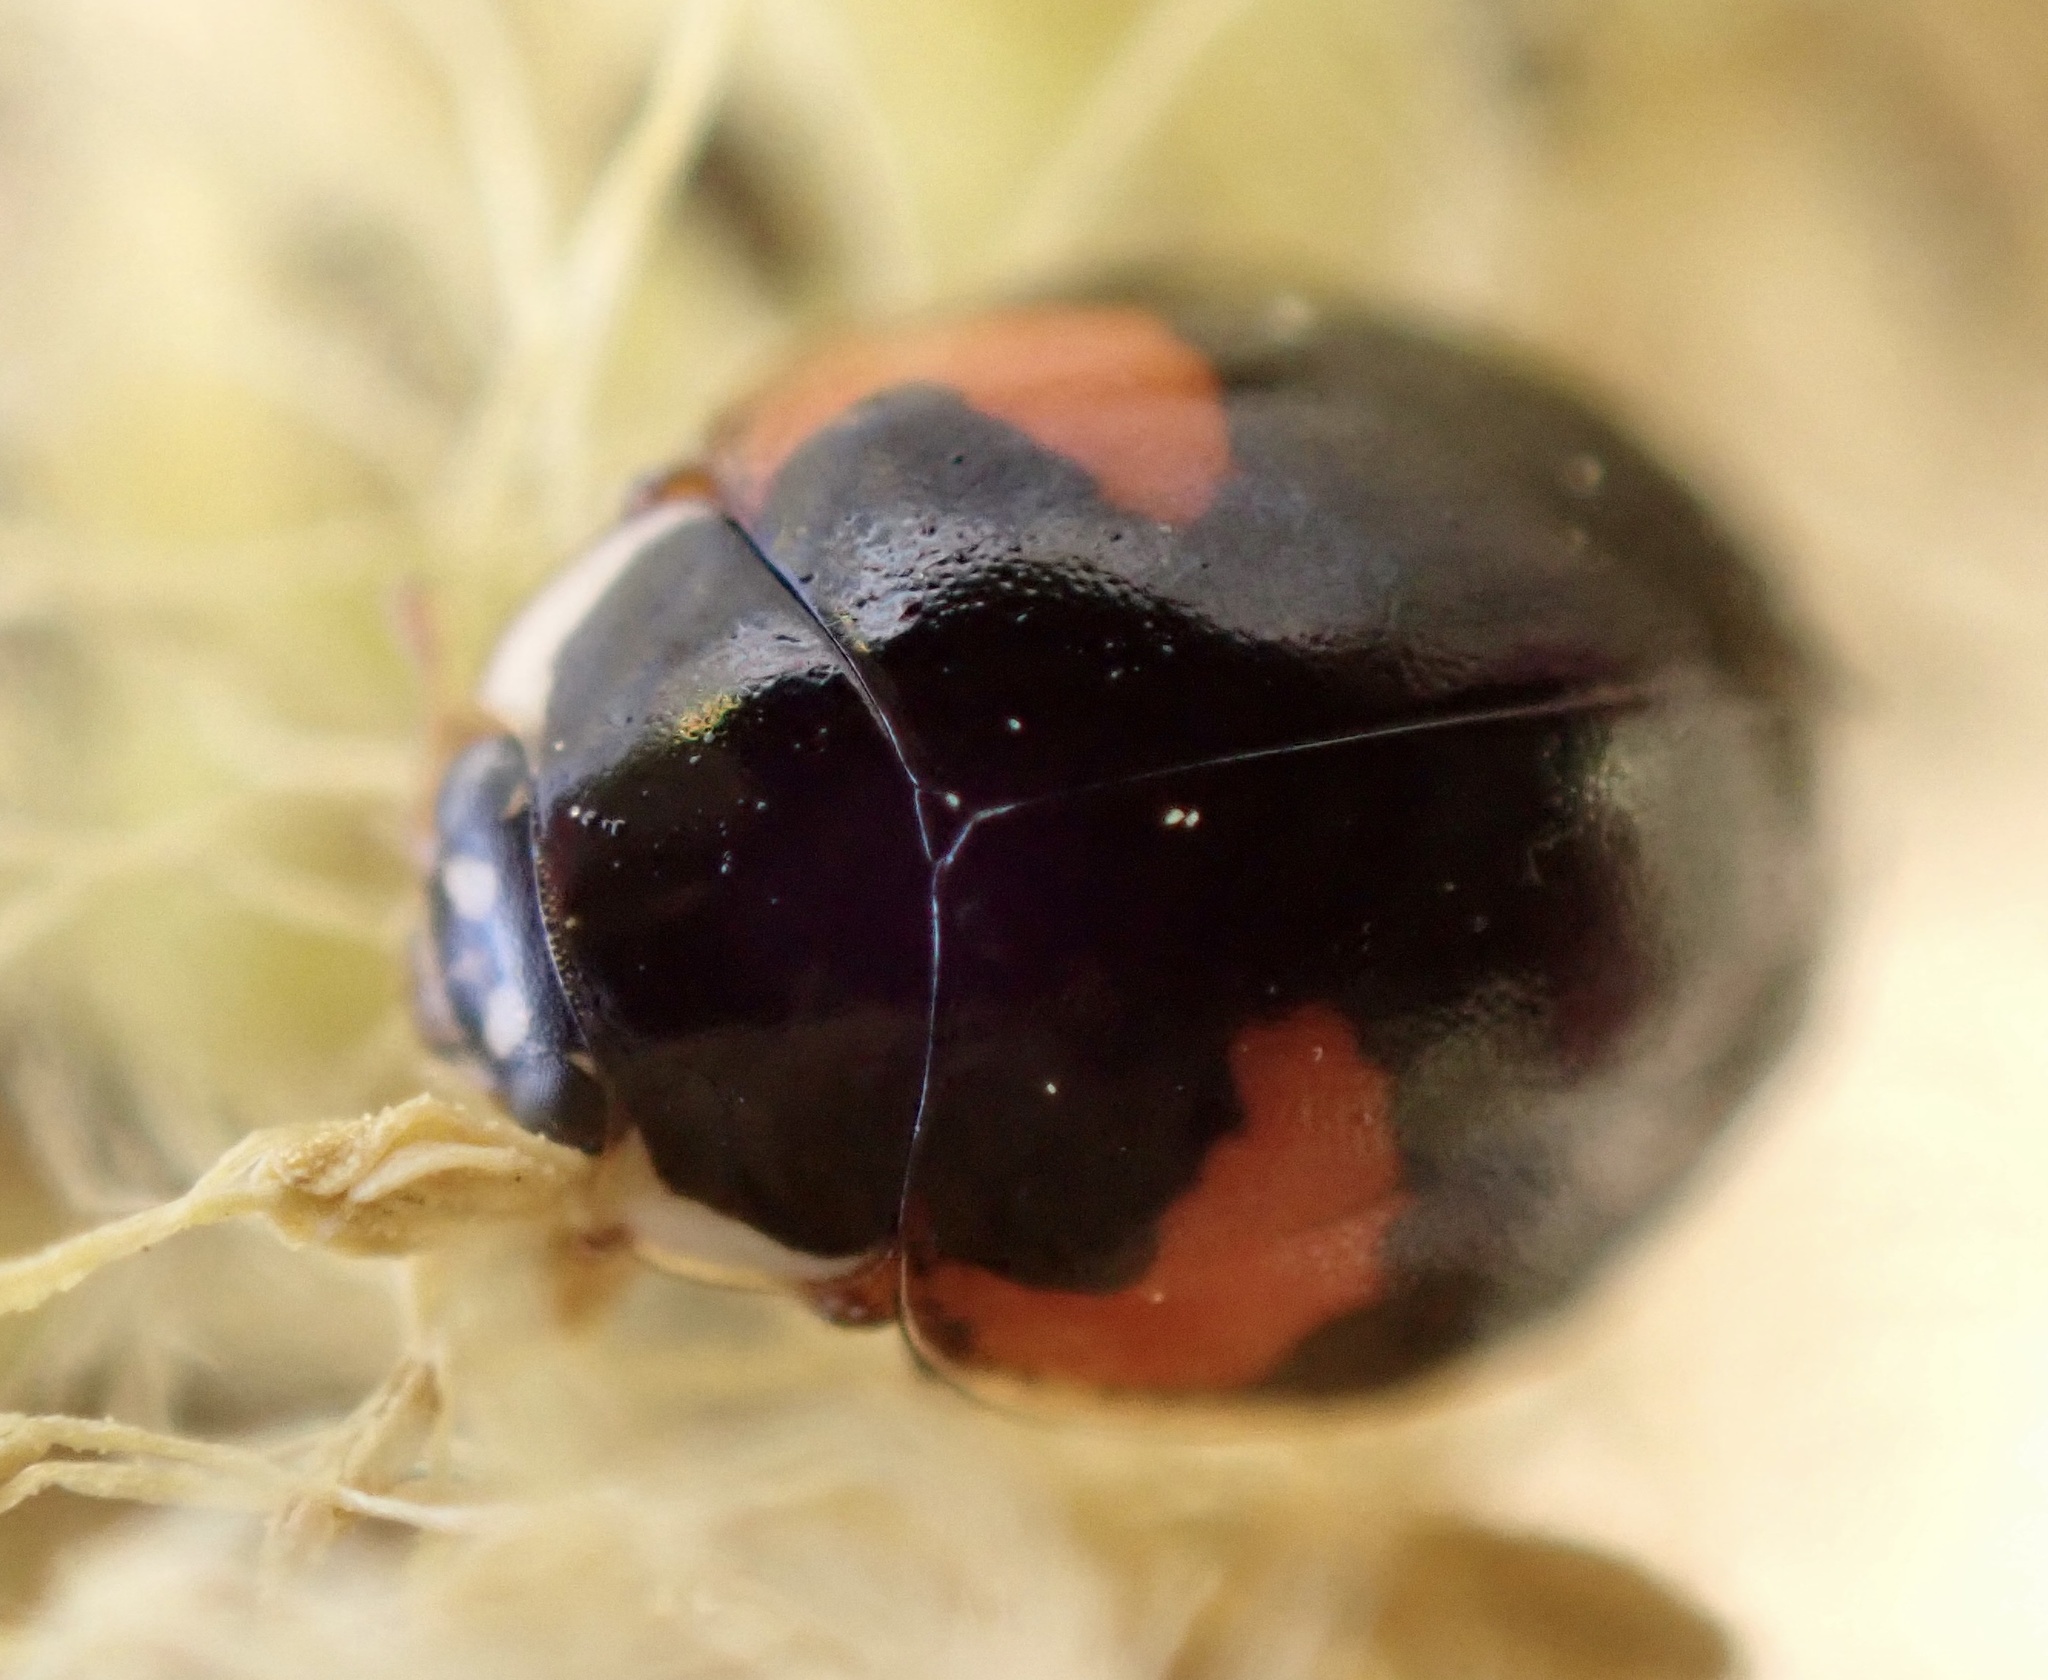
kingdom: Animalia
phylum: Arthropoda
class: Insecta
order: Coleoptera
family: Coccinellidae
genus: Adalia
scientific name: Adalia decempunctata
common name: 10-spot ladybird
